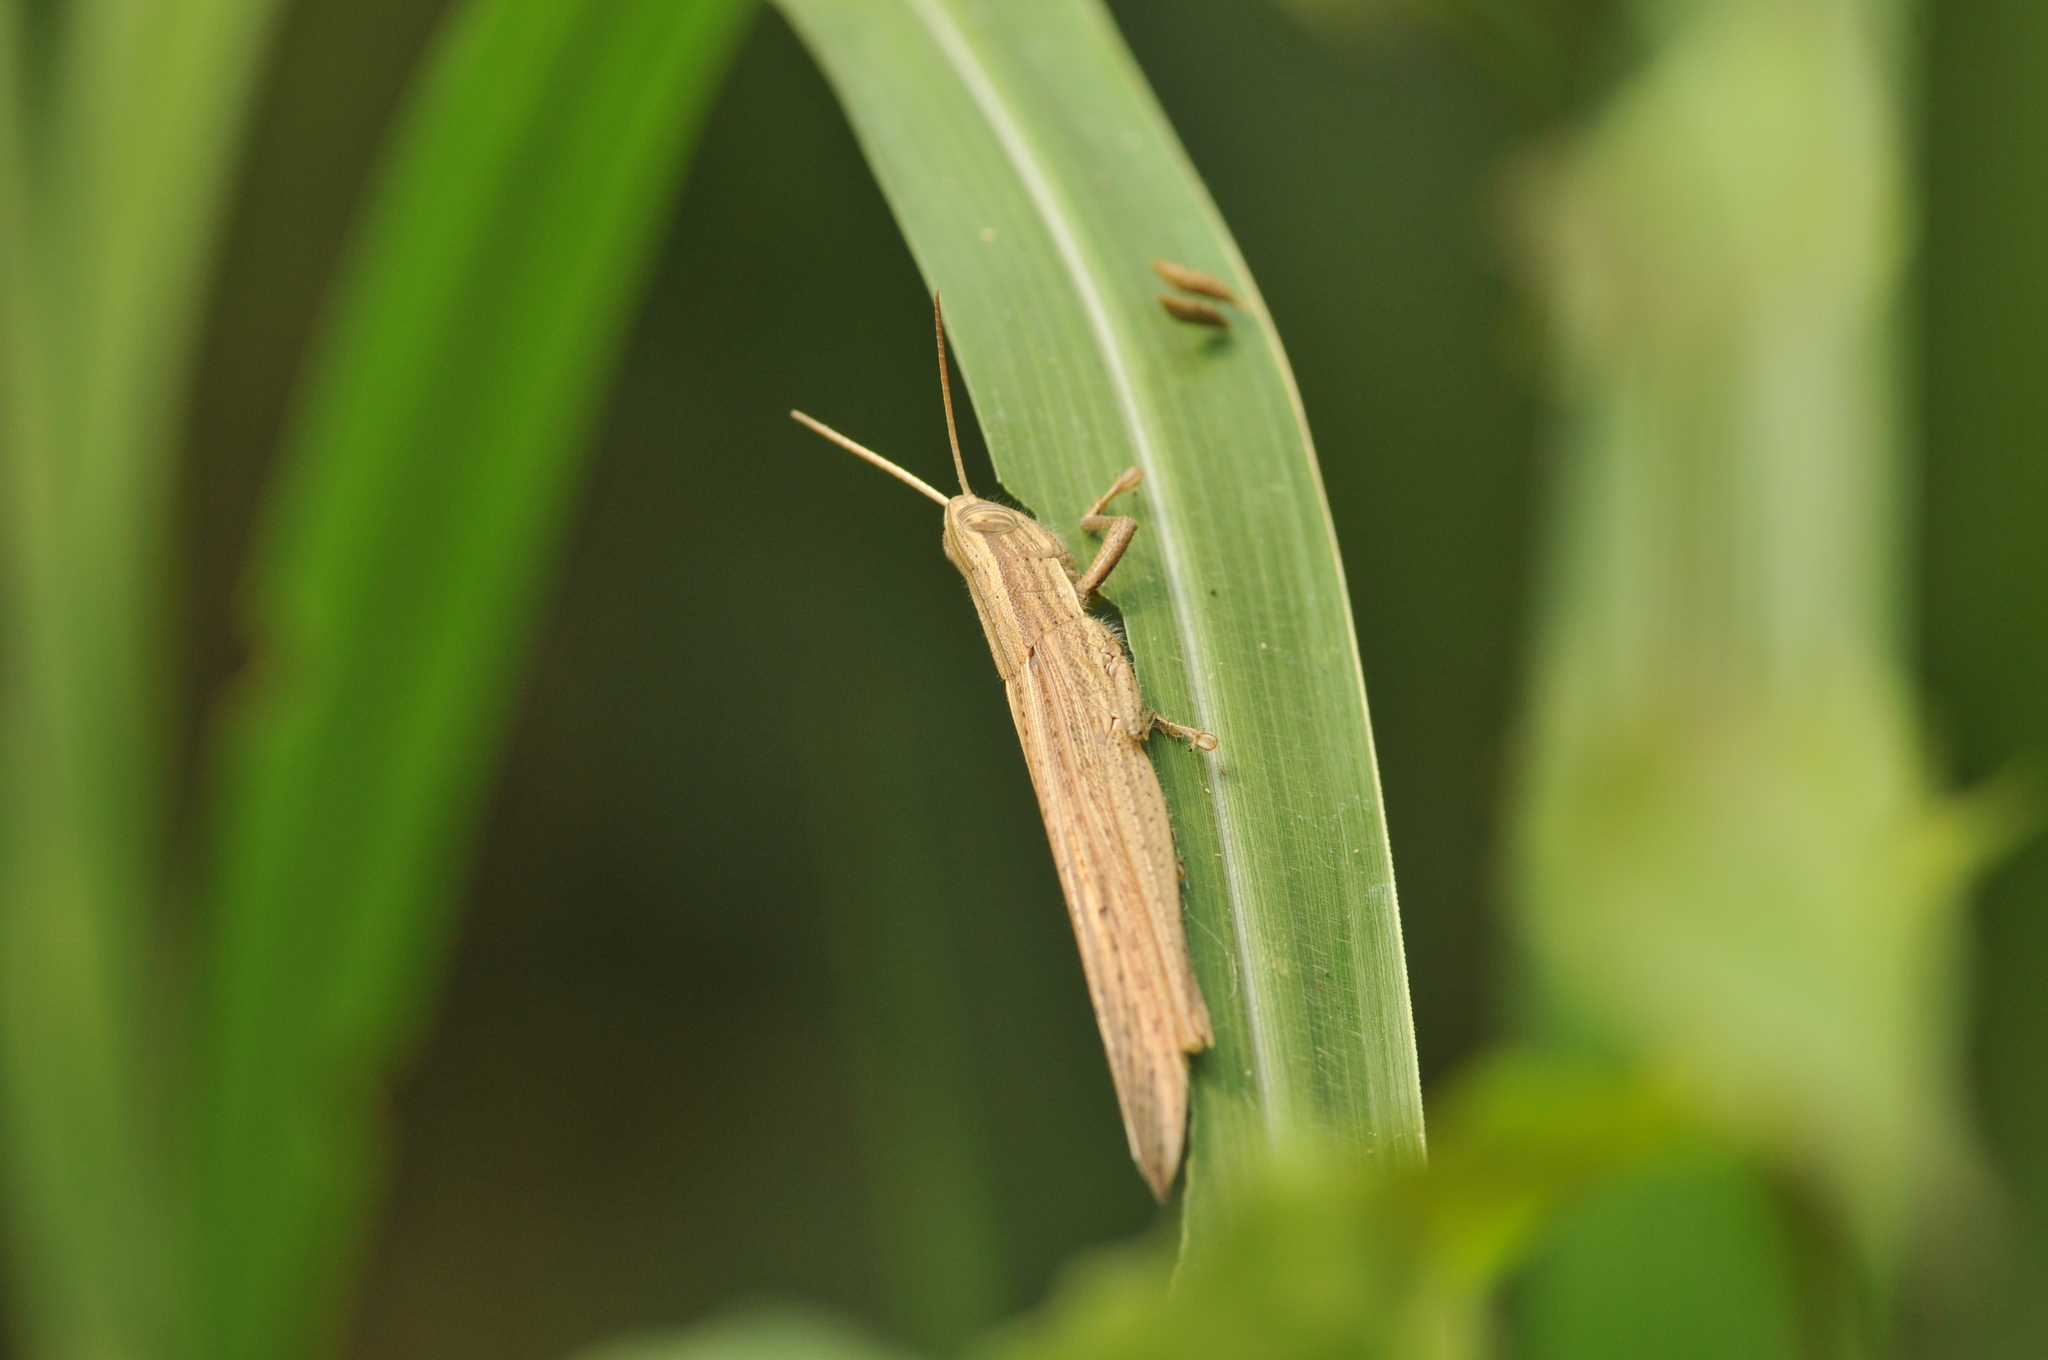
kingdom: Animalia
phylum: Arthropoda
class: Insecta
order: Orthoptera
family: Acrididae
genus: Oxyrrhepes
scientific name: Oxyrrhepes obtusa
